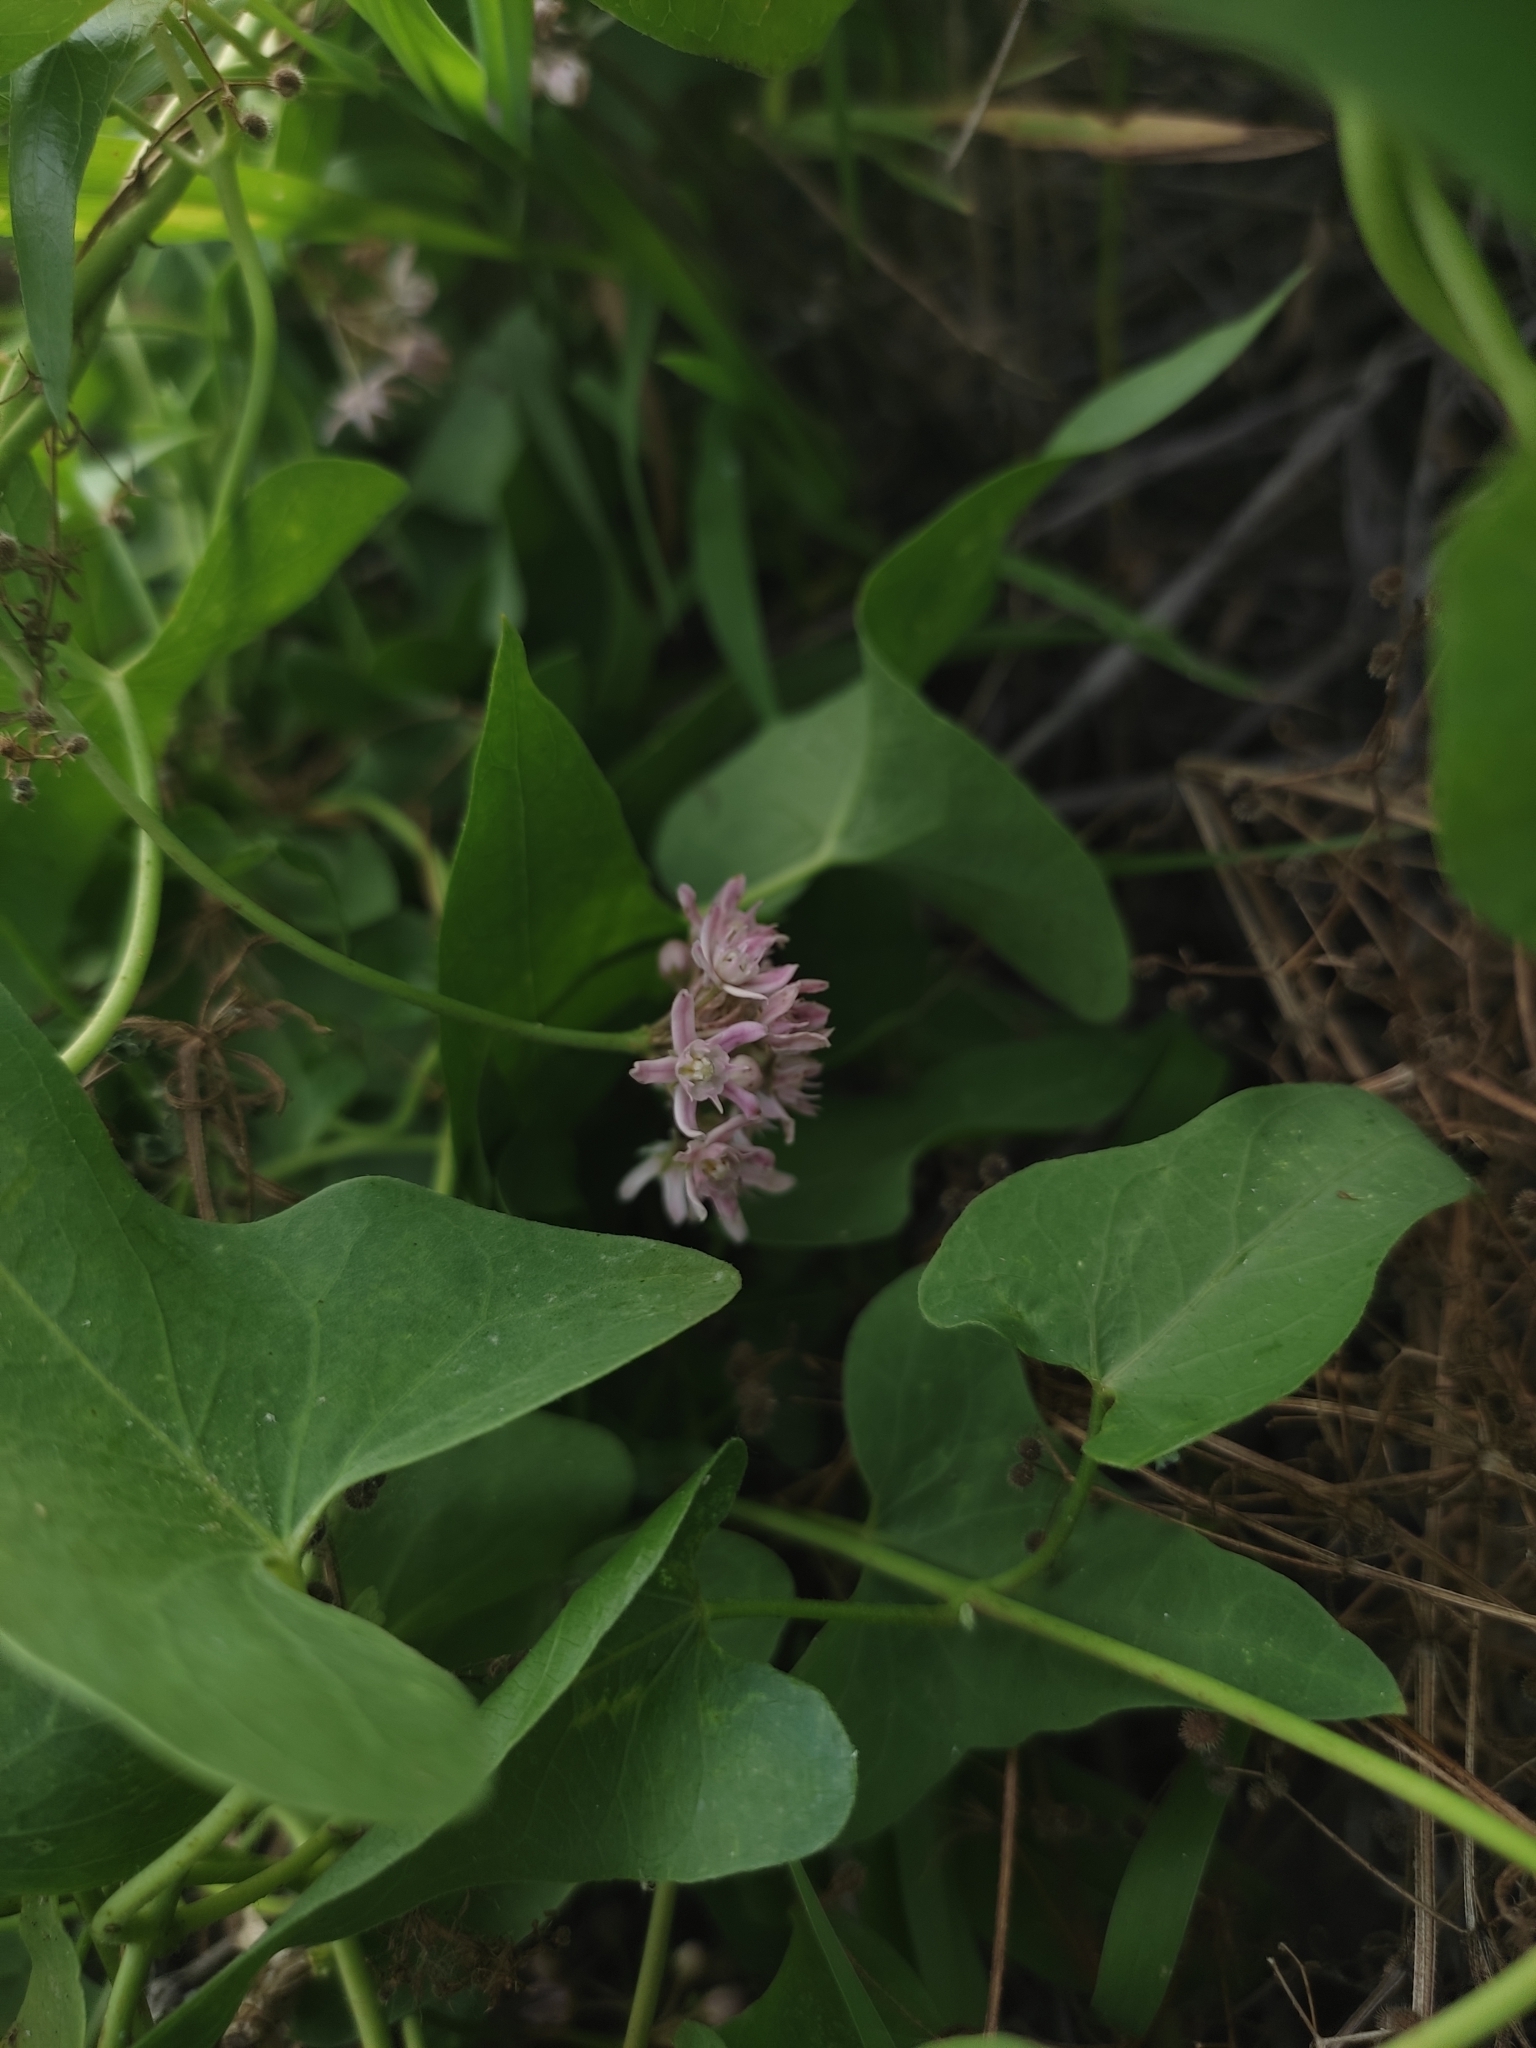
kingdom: Plantae
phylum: Tracheophyta
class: Magnoliopsida
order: Gentianales
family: Apocynaceae
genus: Cynanchum
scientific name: Cynanchum acutum
